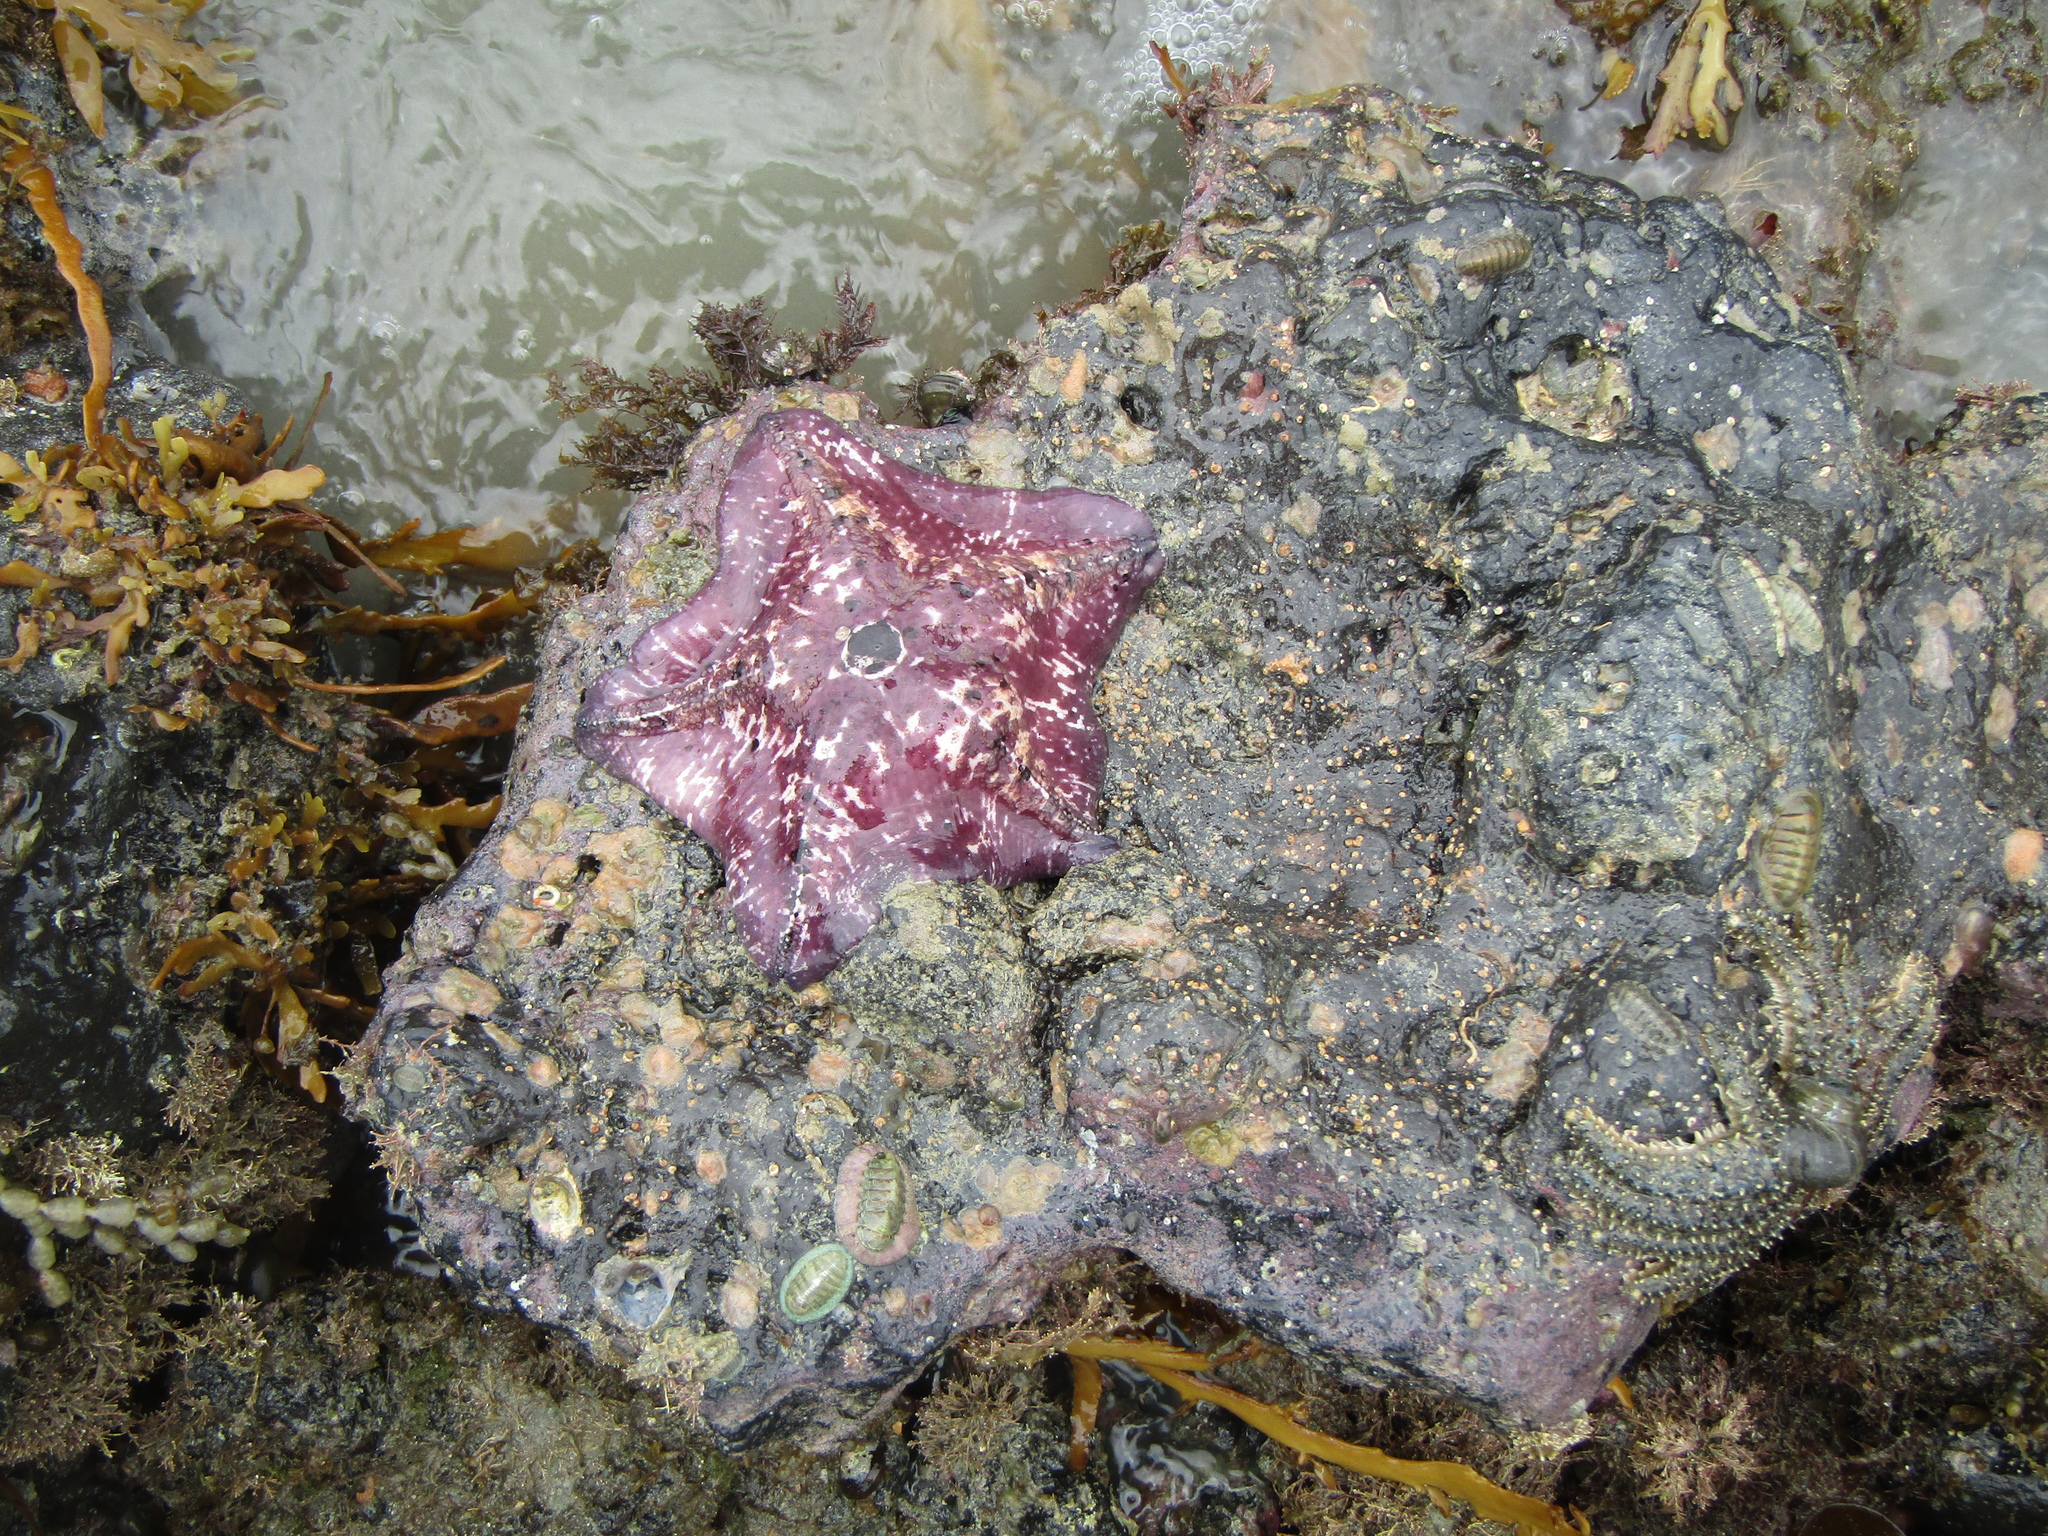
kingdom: Animalia
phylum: Echinodermata
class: Asteroidea
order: Valvatida
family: Asterinidae
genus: Stegnaster
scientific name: Stegnaster inflatus
